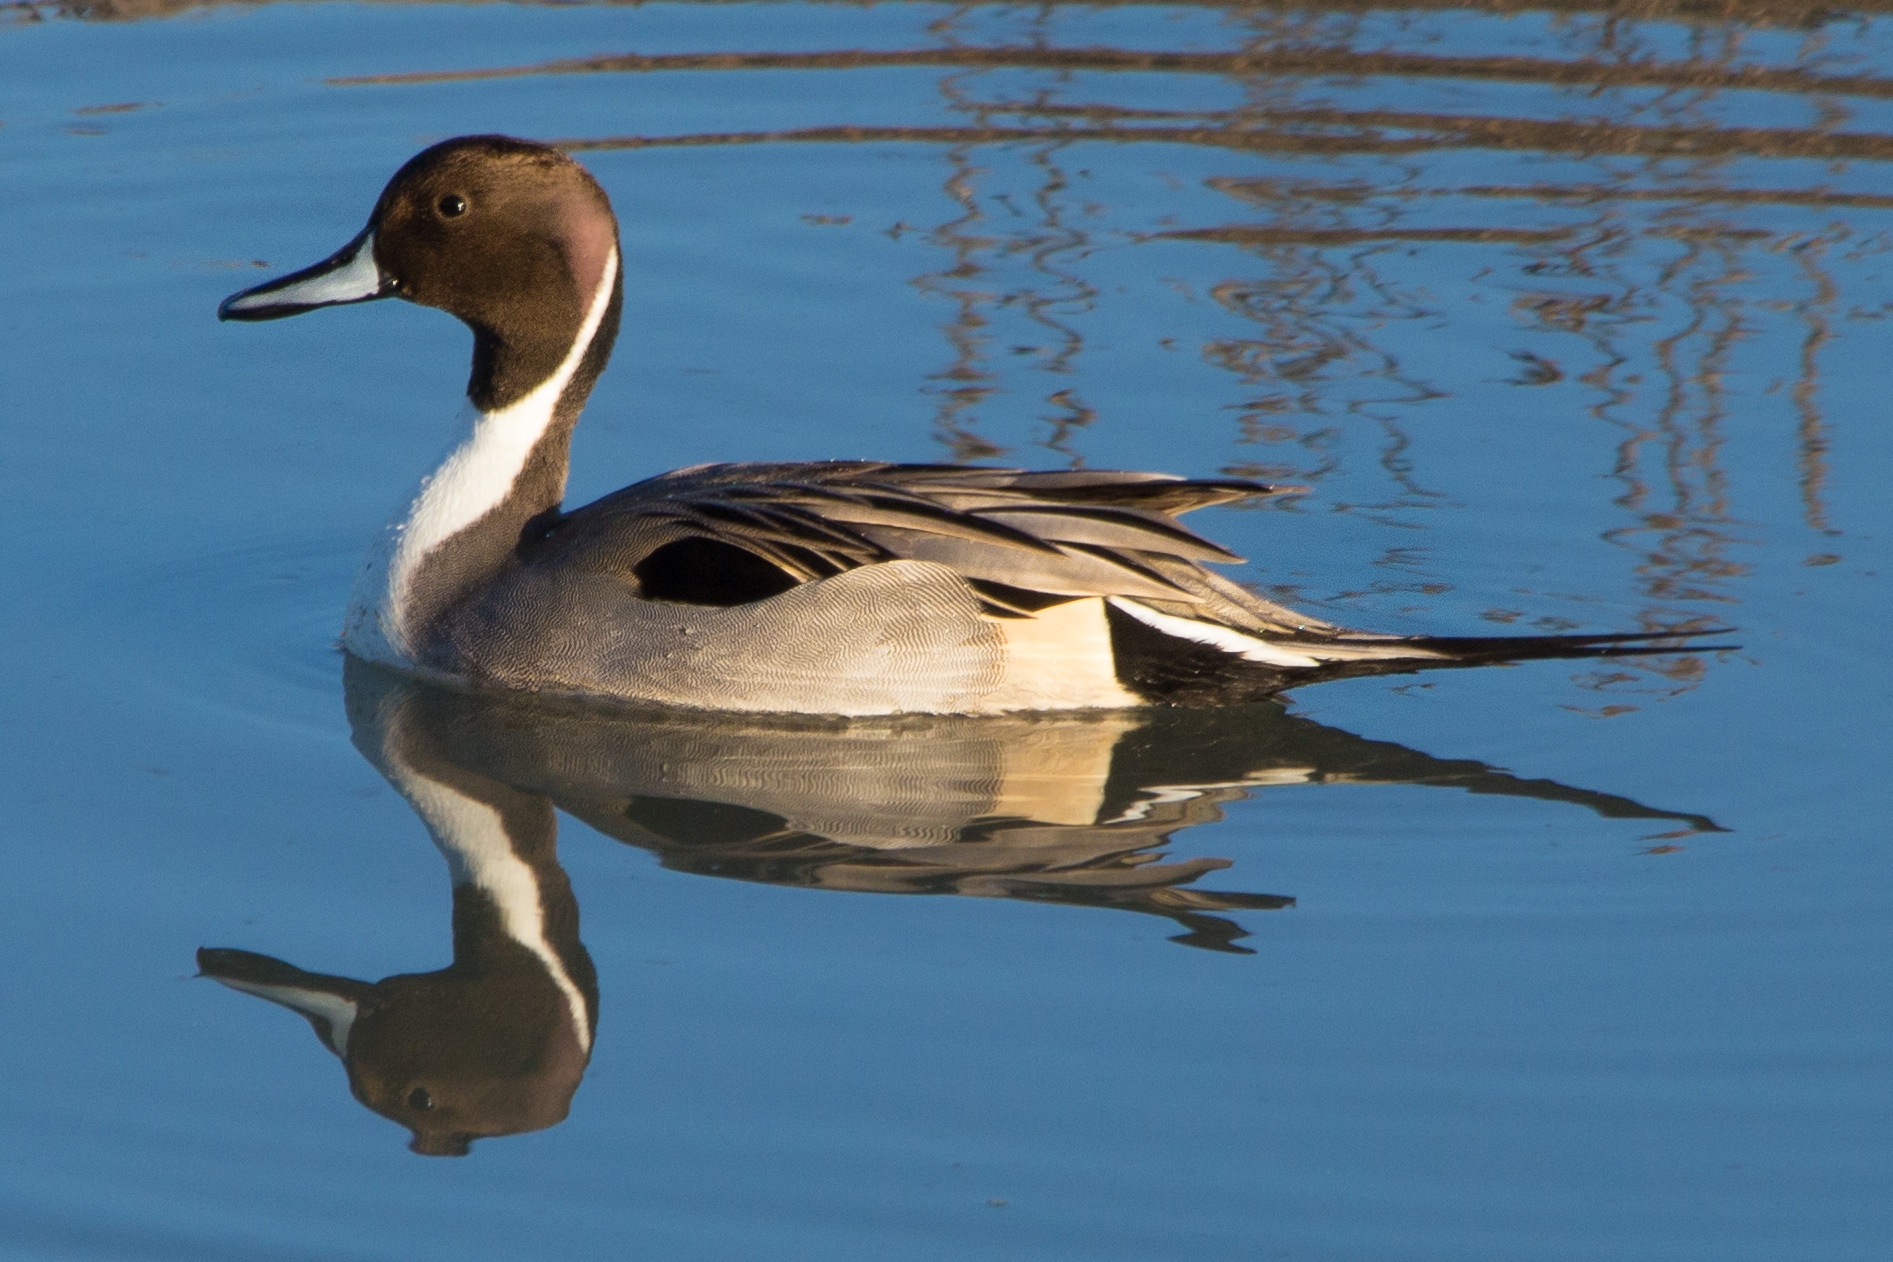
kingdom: Animalia
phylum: Chordata
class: Aves
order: Anseriformes
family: Anatidae
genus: Anas
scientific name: Anas acuta
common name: Northern pintail
